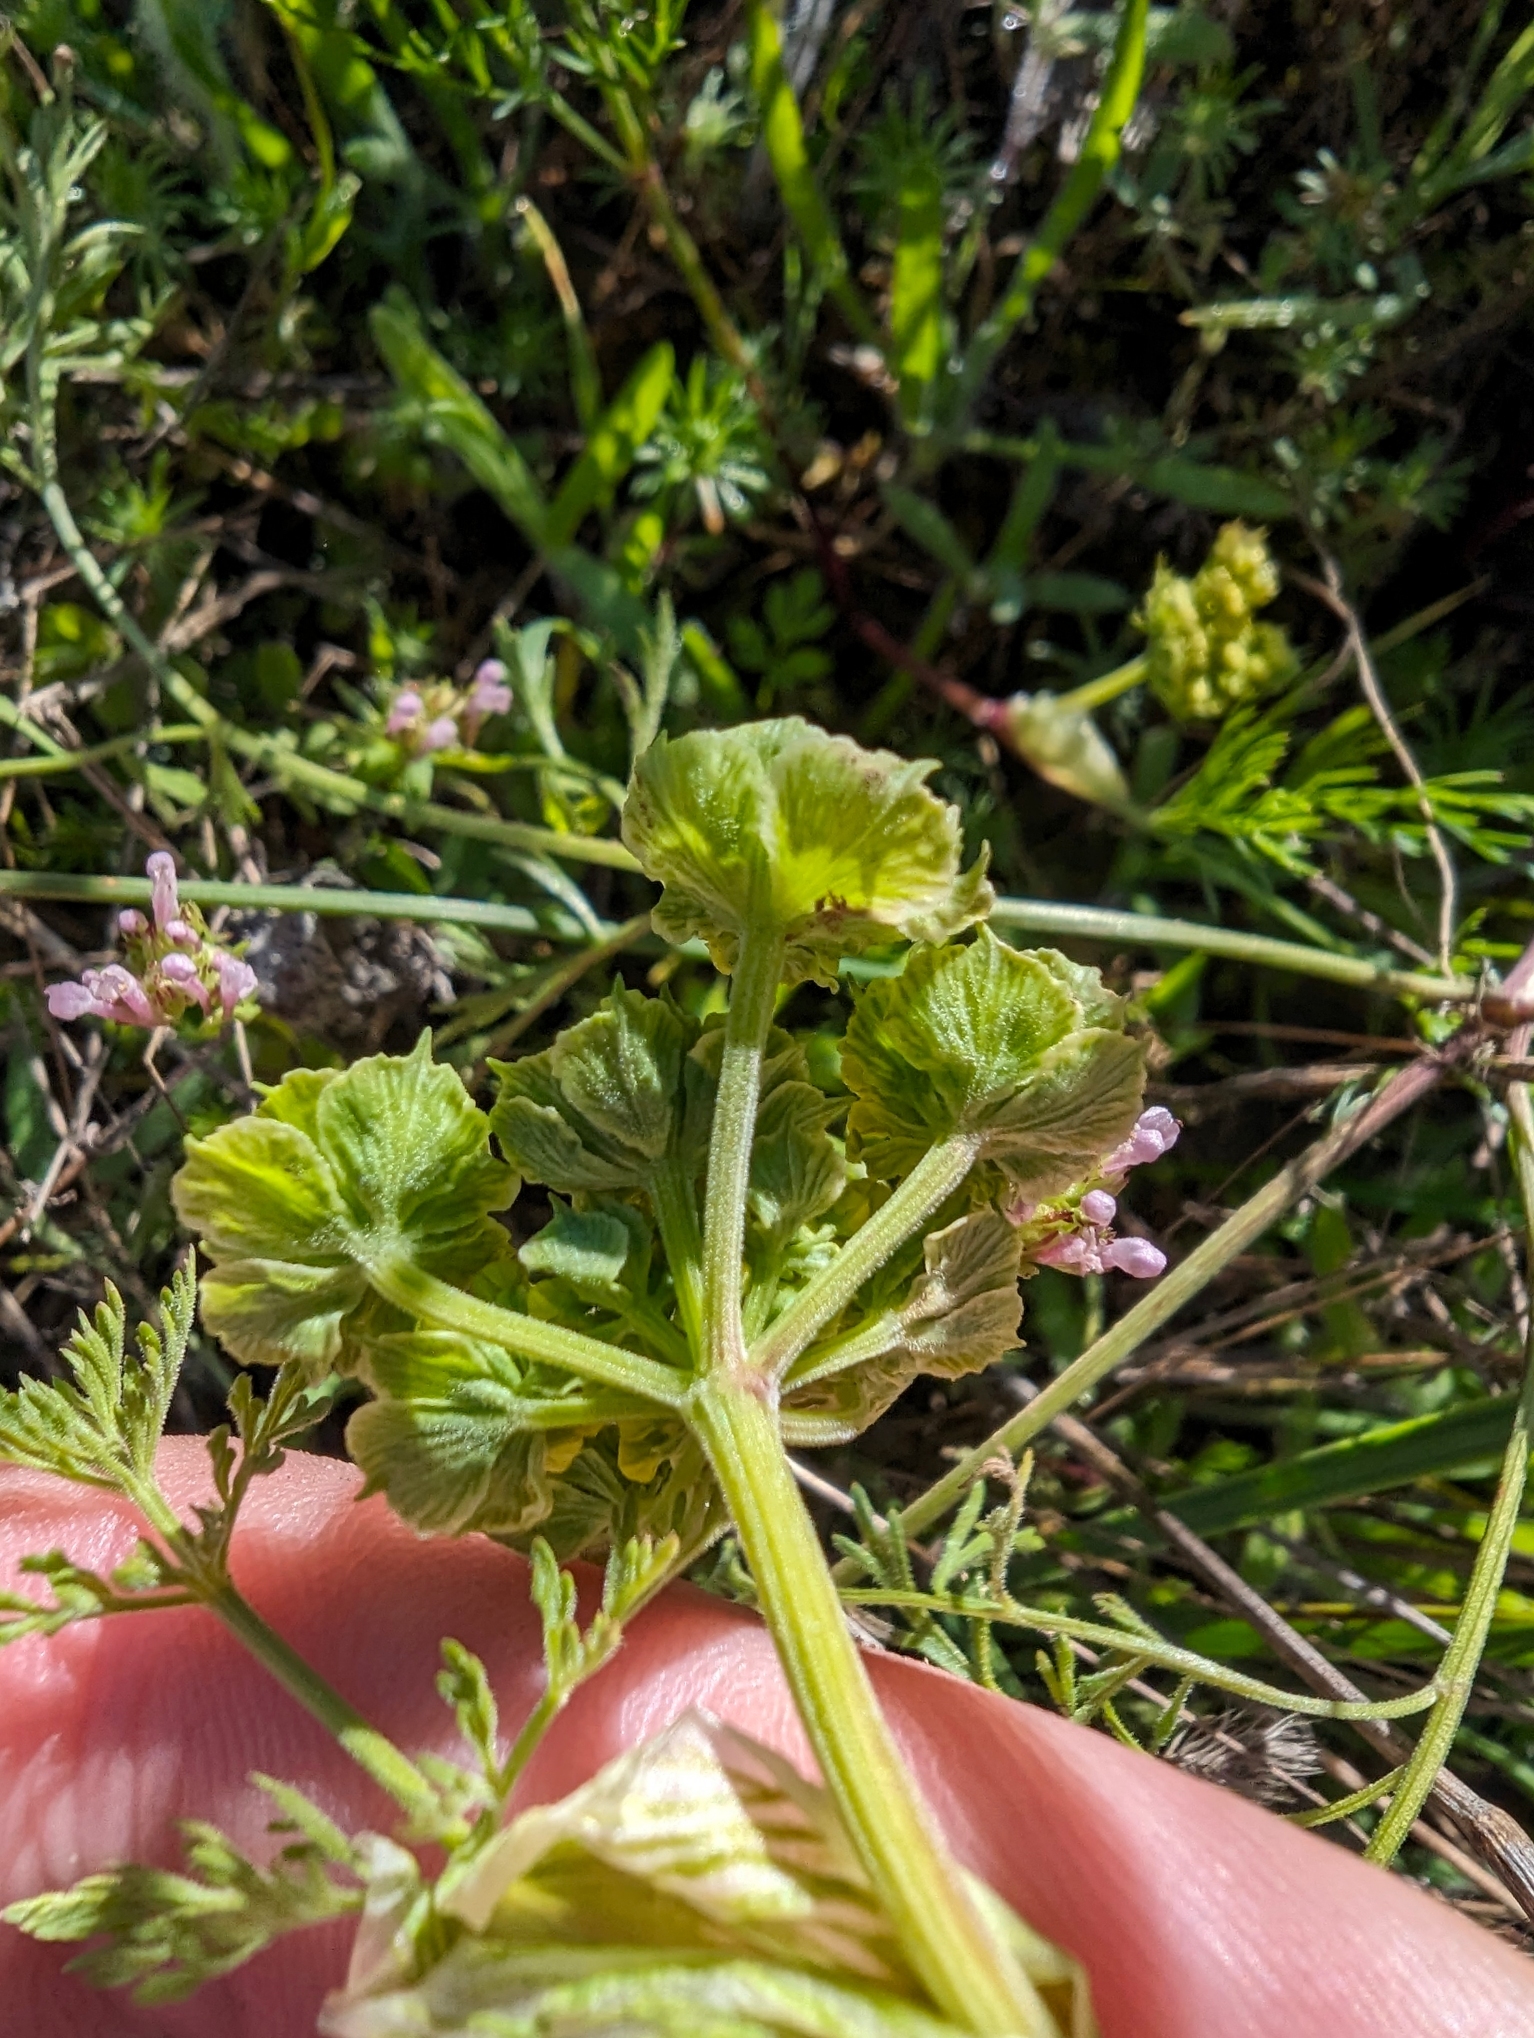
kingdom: Plantae
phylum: Tracheophyta
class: Magnoliopsida
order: Apiales
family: Apiaceae
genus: Lomatium
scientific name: Lomatium utriculatum
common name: Fine-leaf desert-parsley
